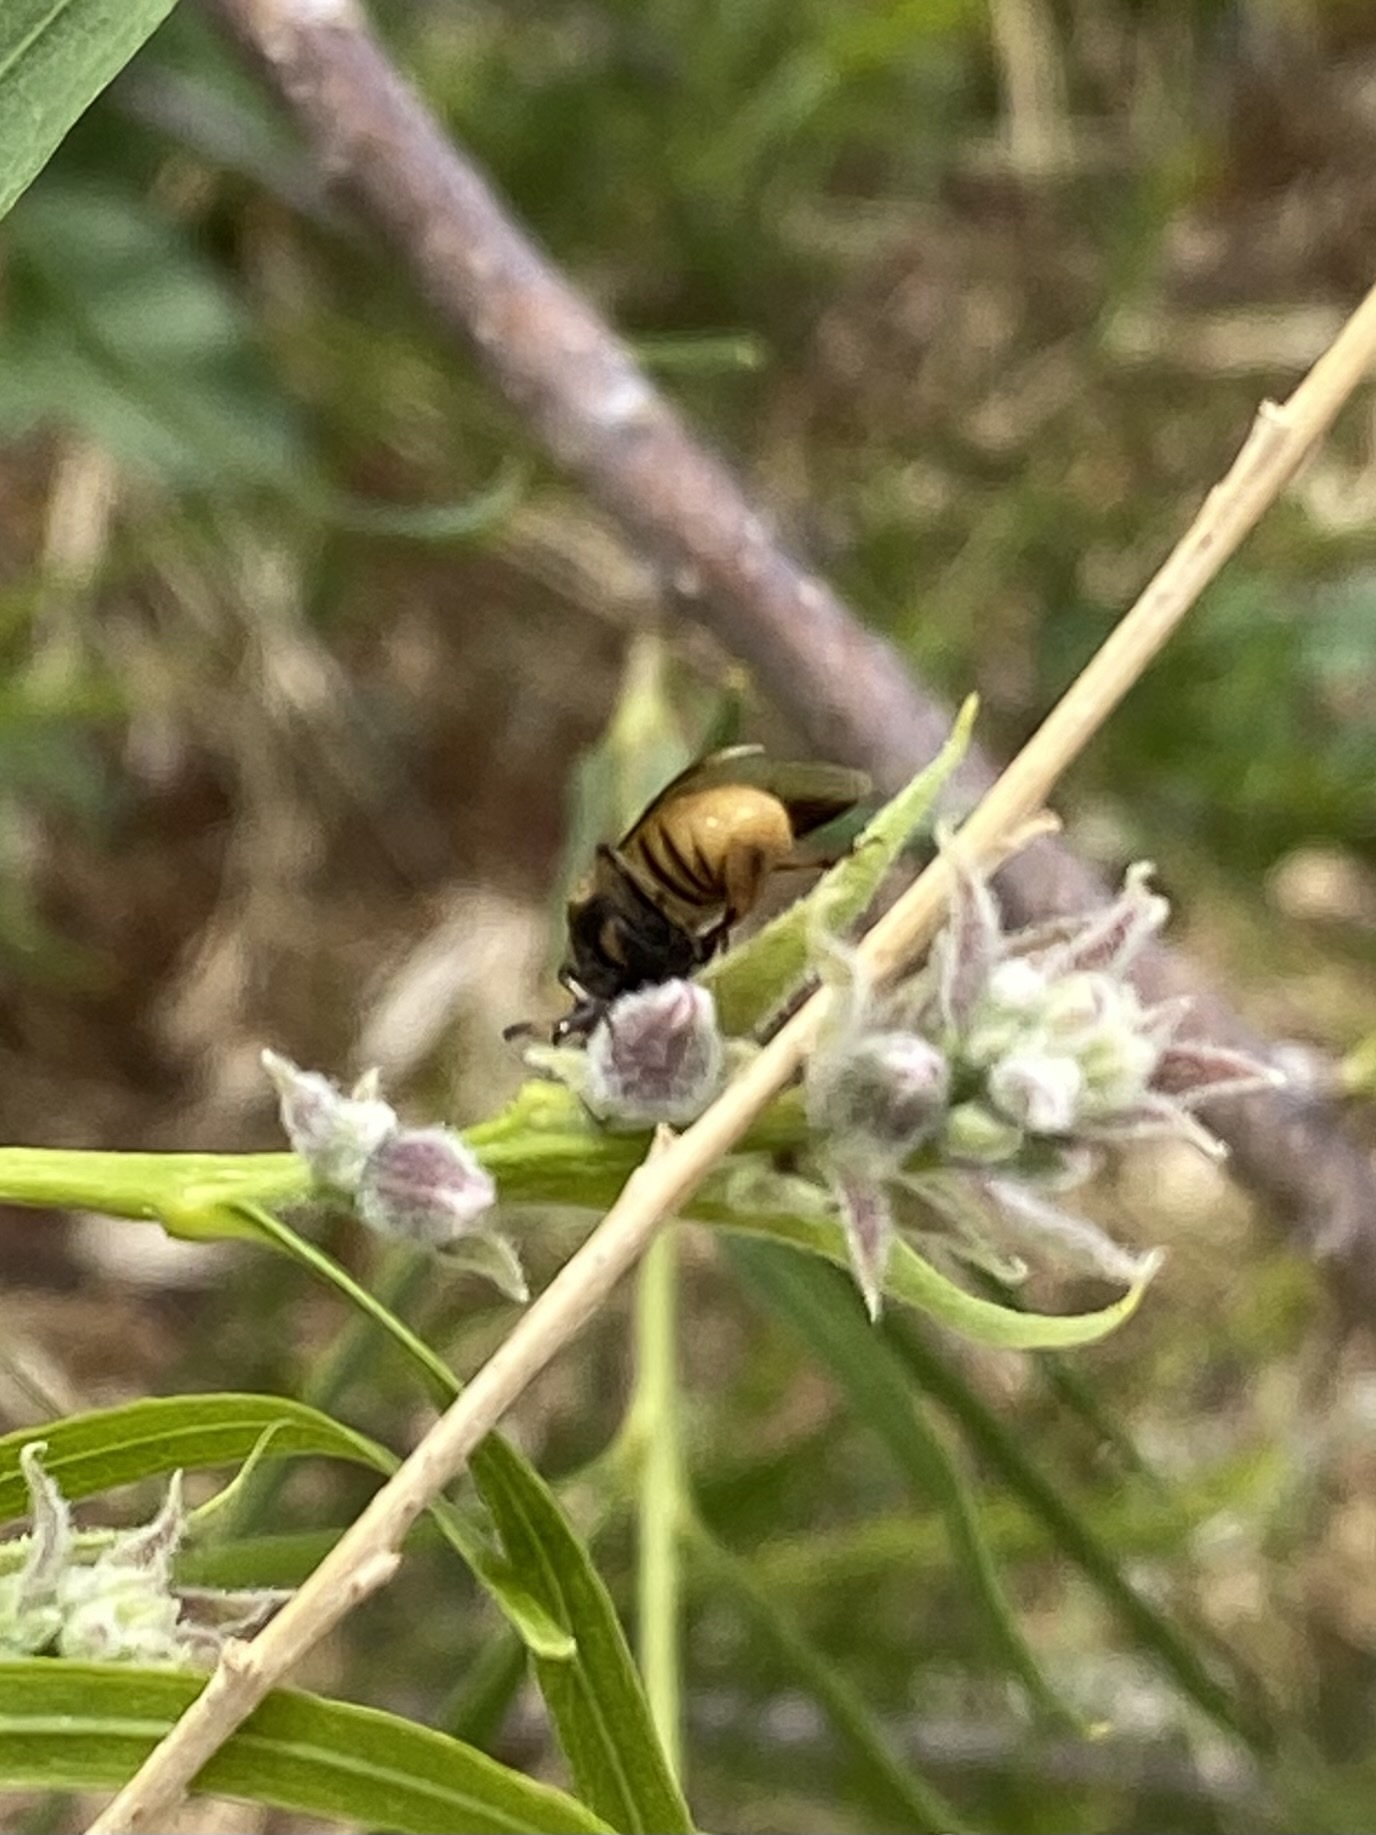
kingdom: Animalia
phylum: Arthropoda
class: Insecta
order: Coleoptera
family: Ripiphoridae
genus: Ripiphorus
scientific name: Ripiphorus
